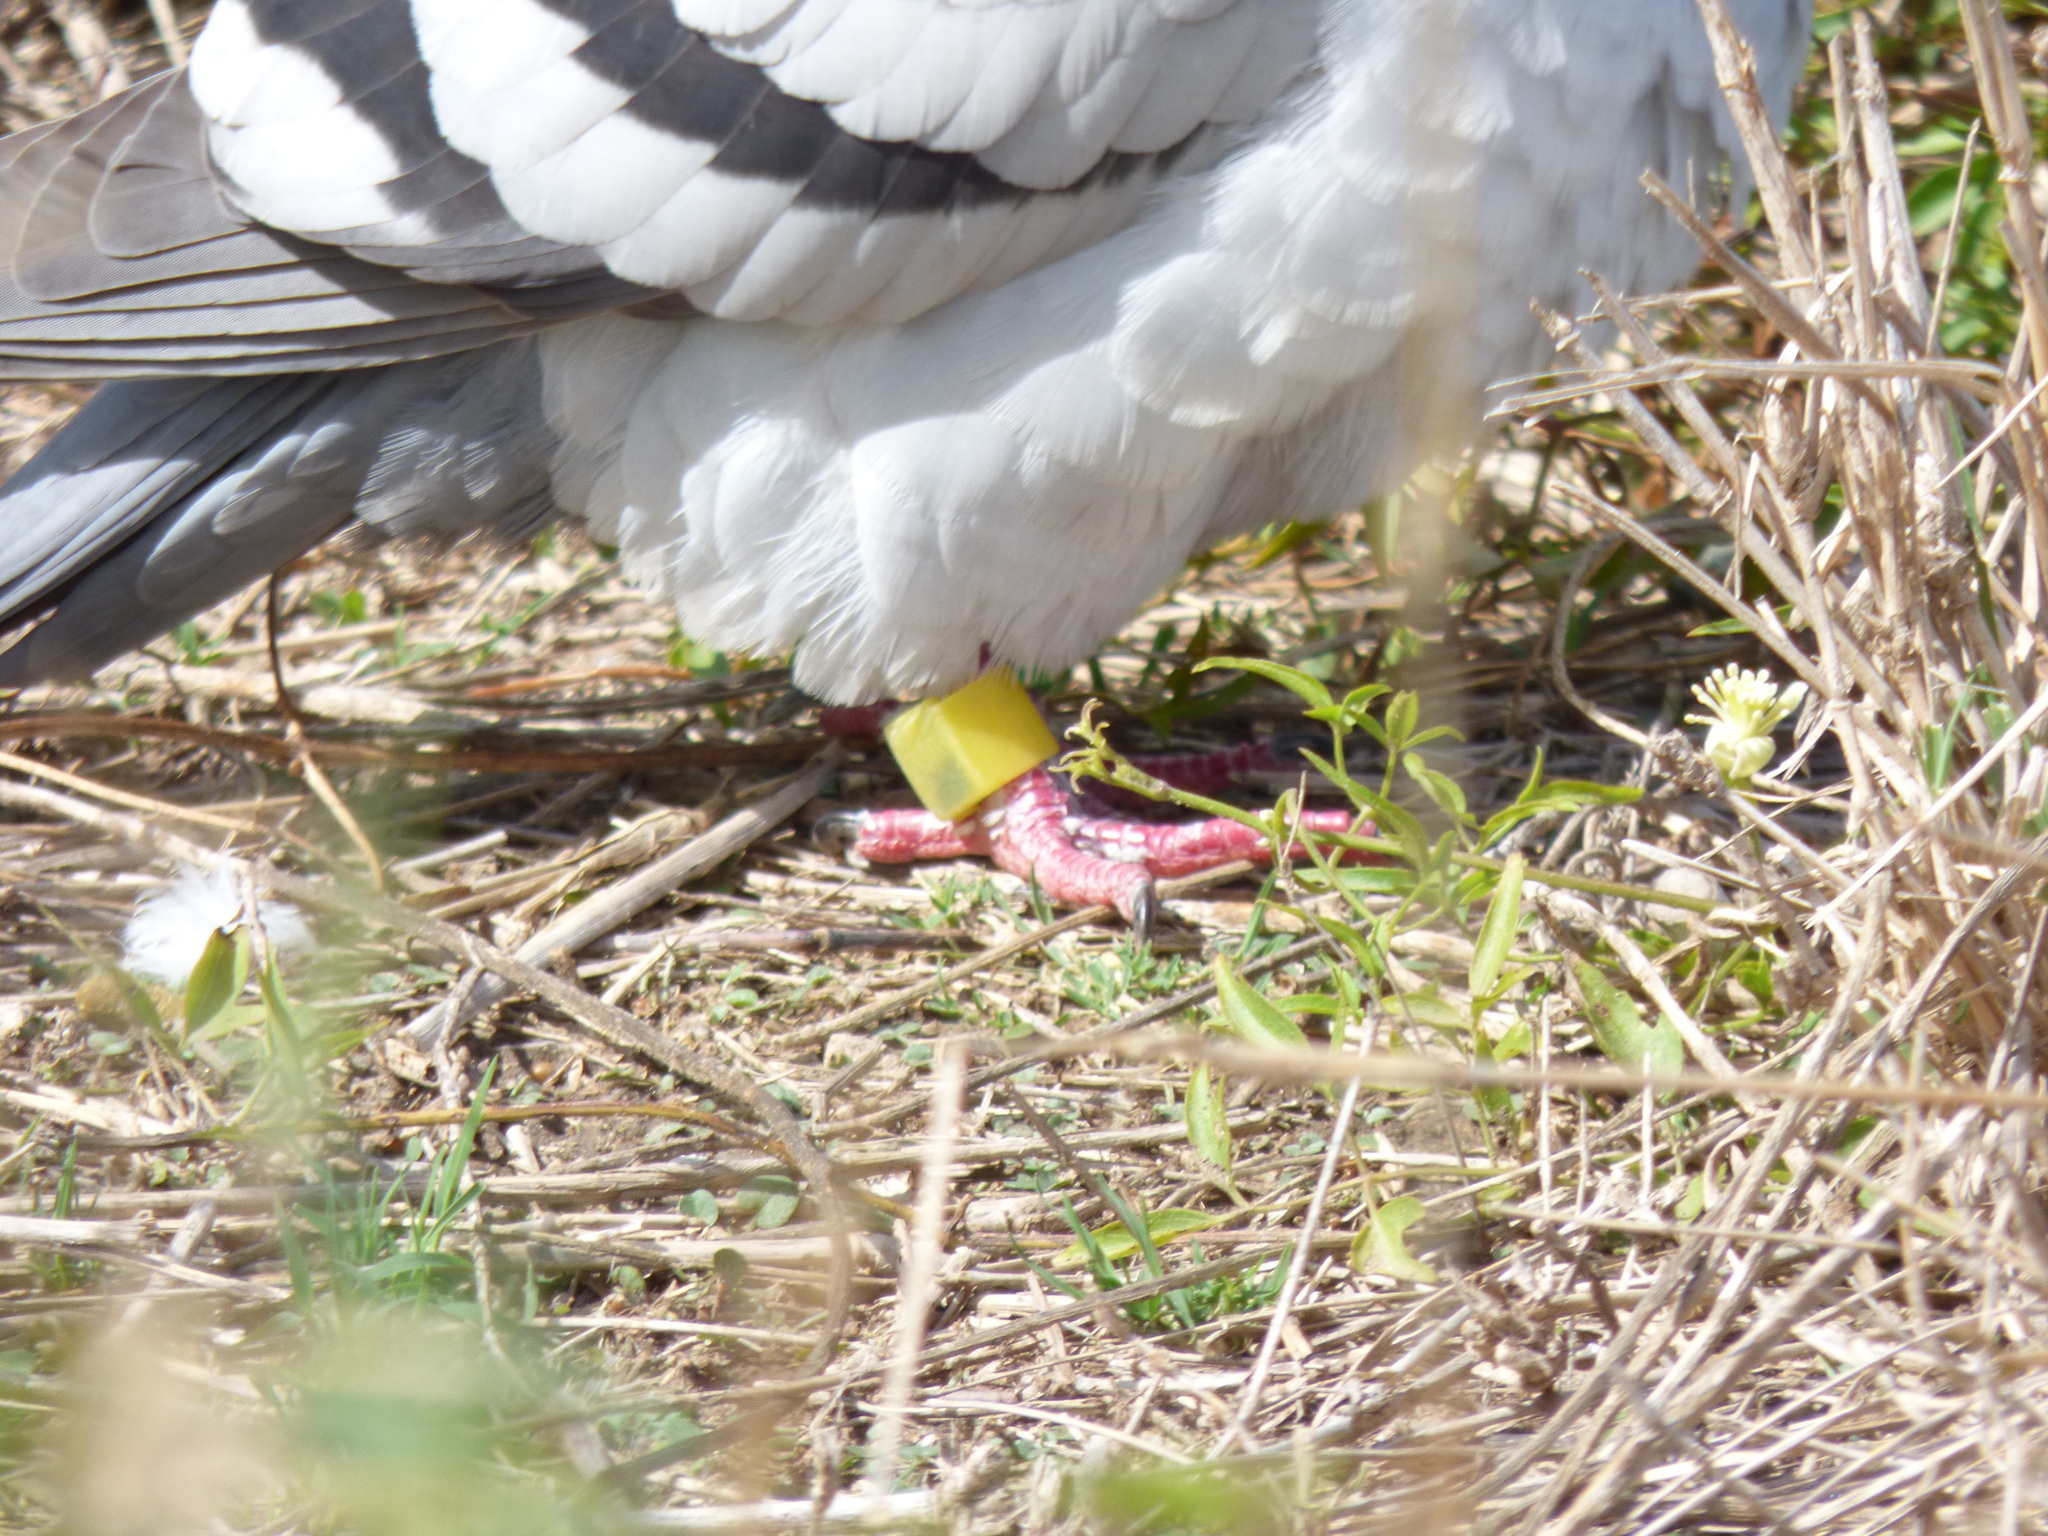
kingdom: Animalia
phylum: Chordata
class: Aves
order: Columbiformes
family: Columbidae
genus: Columba
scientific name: Columba livia
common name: Rock pigeon
